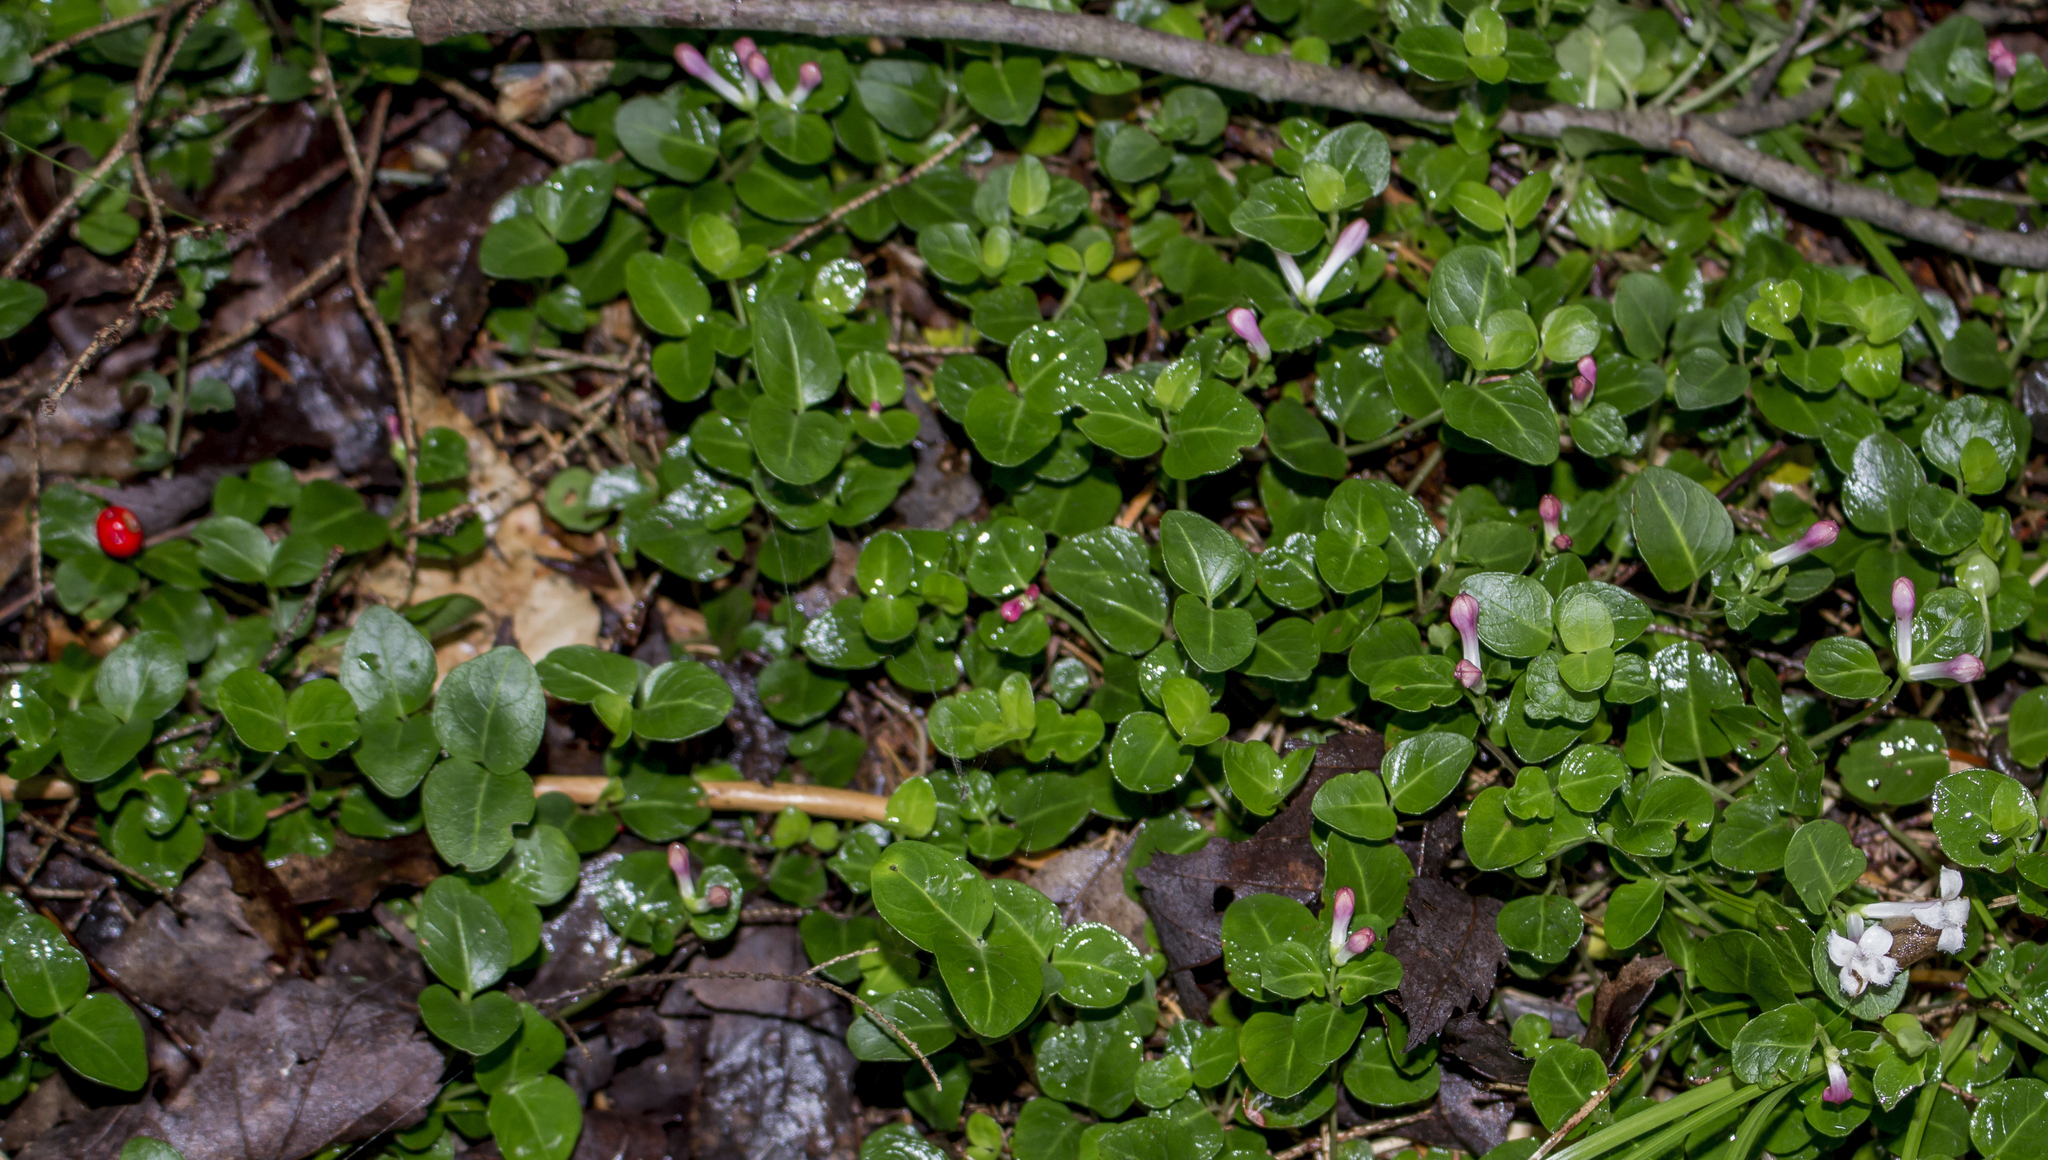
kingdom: Plantae
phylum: Tracheophyta
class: Magnoliopsida
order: Gentianales
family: Rubiaceae
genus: Mitchella
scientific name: Mitchella repens
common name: Partridge-berry
